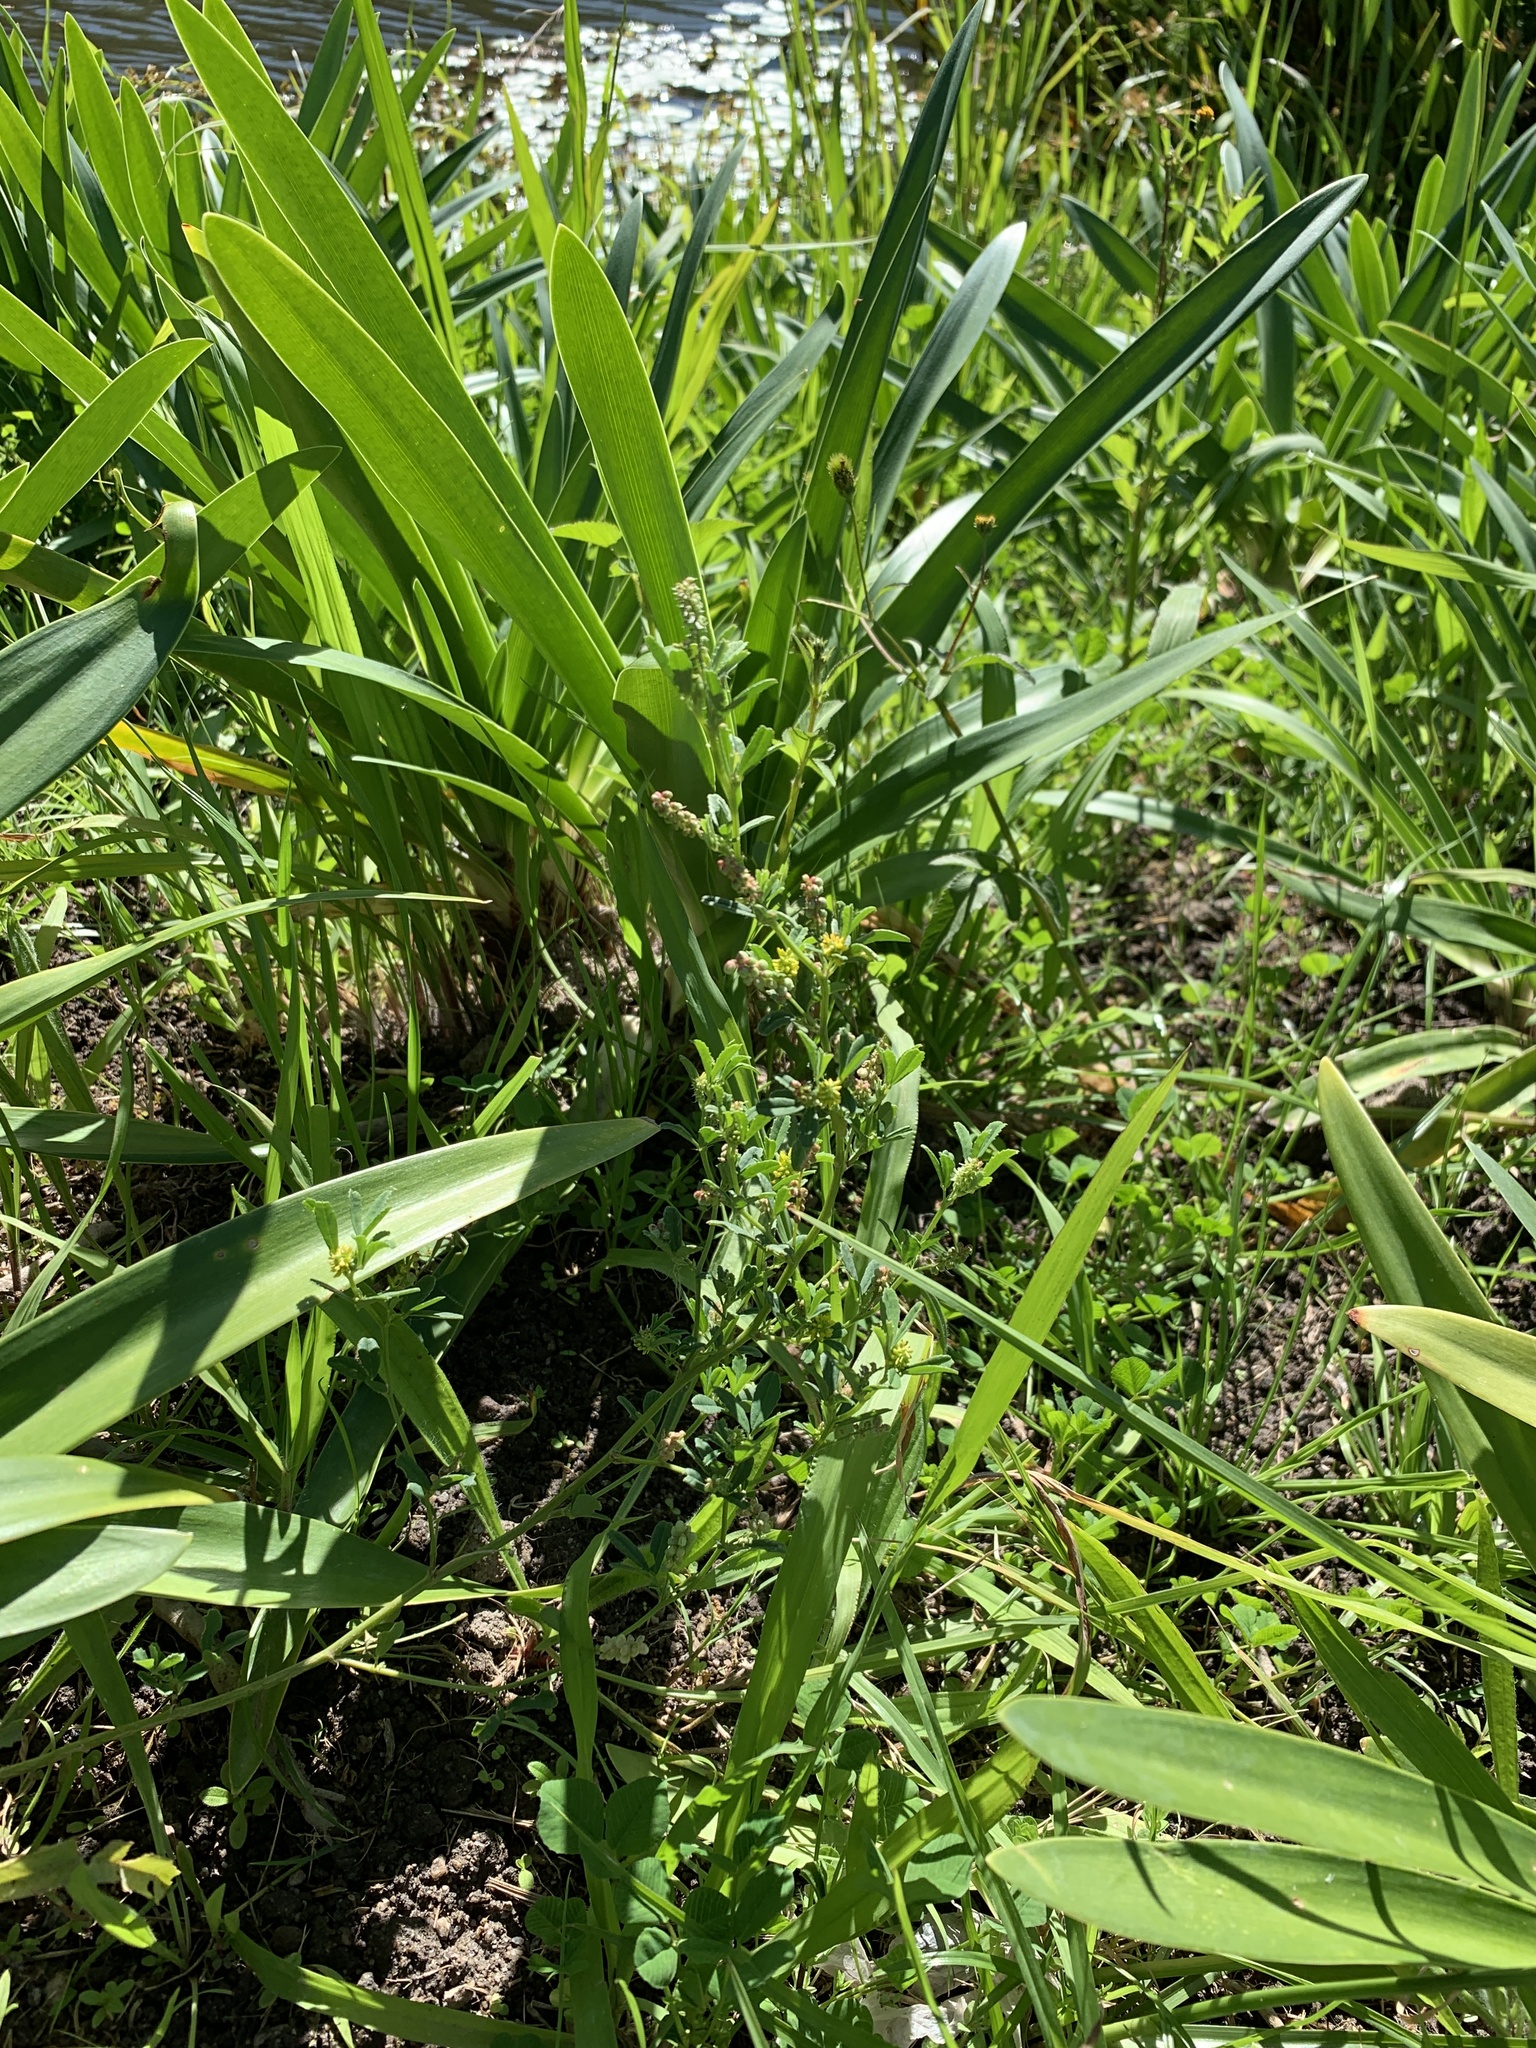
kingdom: Plantae
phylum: Tracheophyta
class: Magnoliopsida
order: Fabales
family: Fabaceae
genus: Melilotus
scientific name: Melilotus indicus
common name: Small melilot
